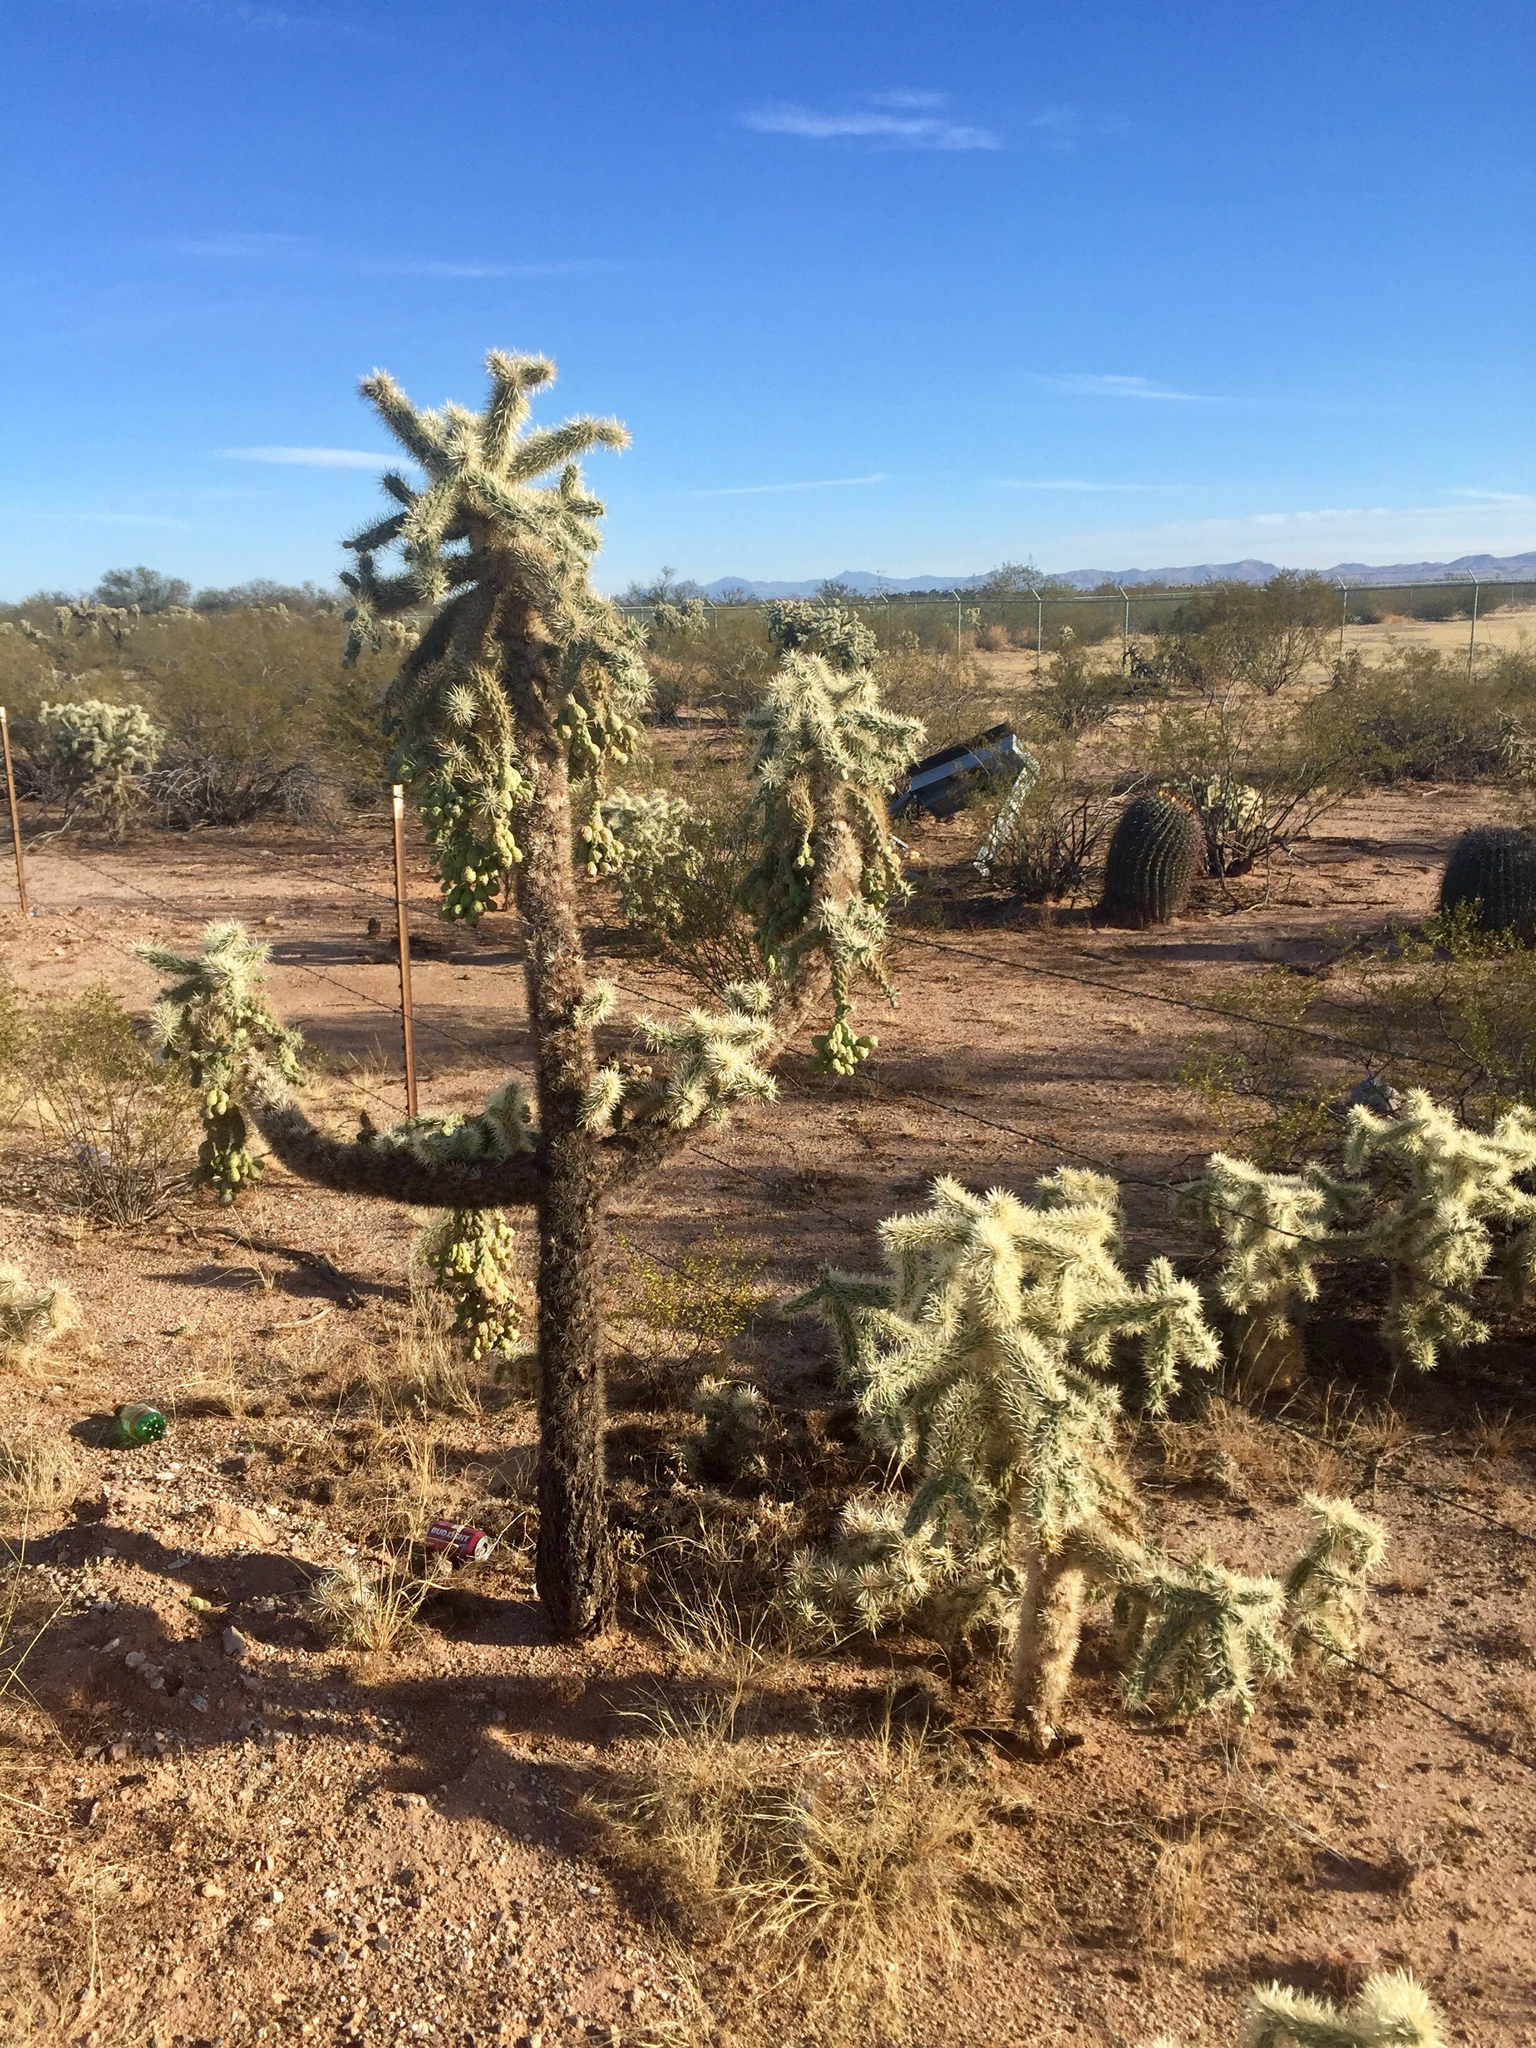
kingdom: Plantae
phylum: Tracheophyta
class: Magnoliopsida
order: Caryophyllales
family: Cactaceae
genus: Cylindropuntia
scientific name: Cylindropuntia fulgida
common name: Jumping cholla
